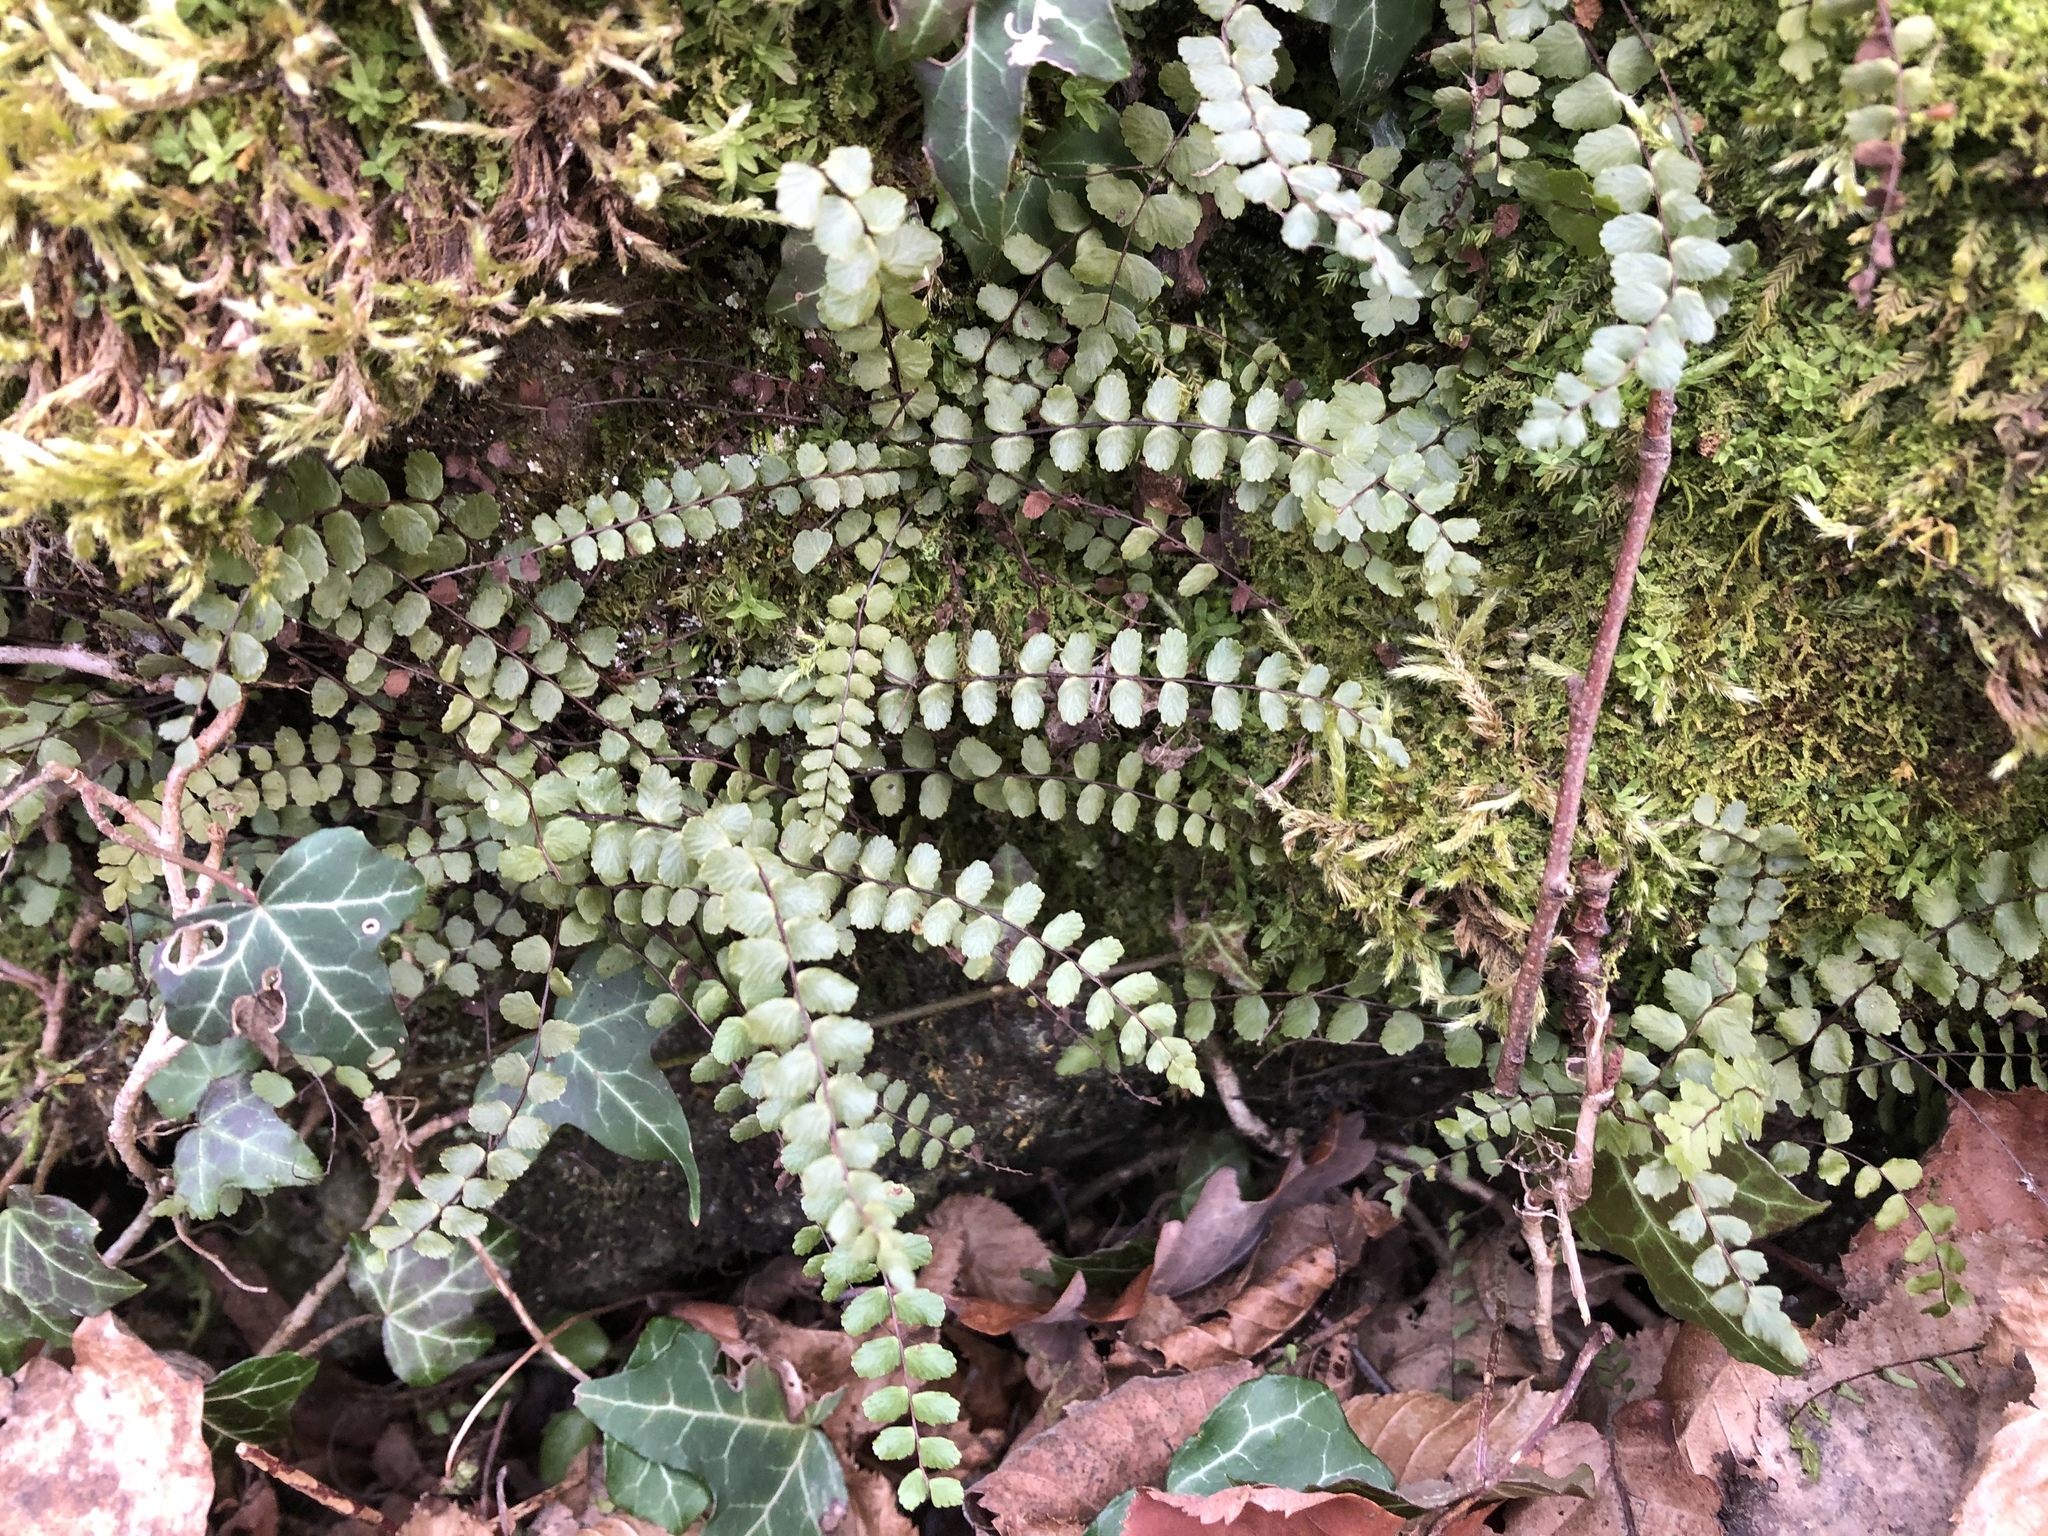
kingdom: Plantae
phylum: Tracheophyta
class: Polypodiopsida
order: Polypodiales
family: Aspleniaceae
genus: Asplenium
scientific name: Asplenium trichomanes
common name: Maidenhair spleenwort
